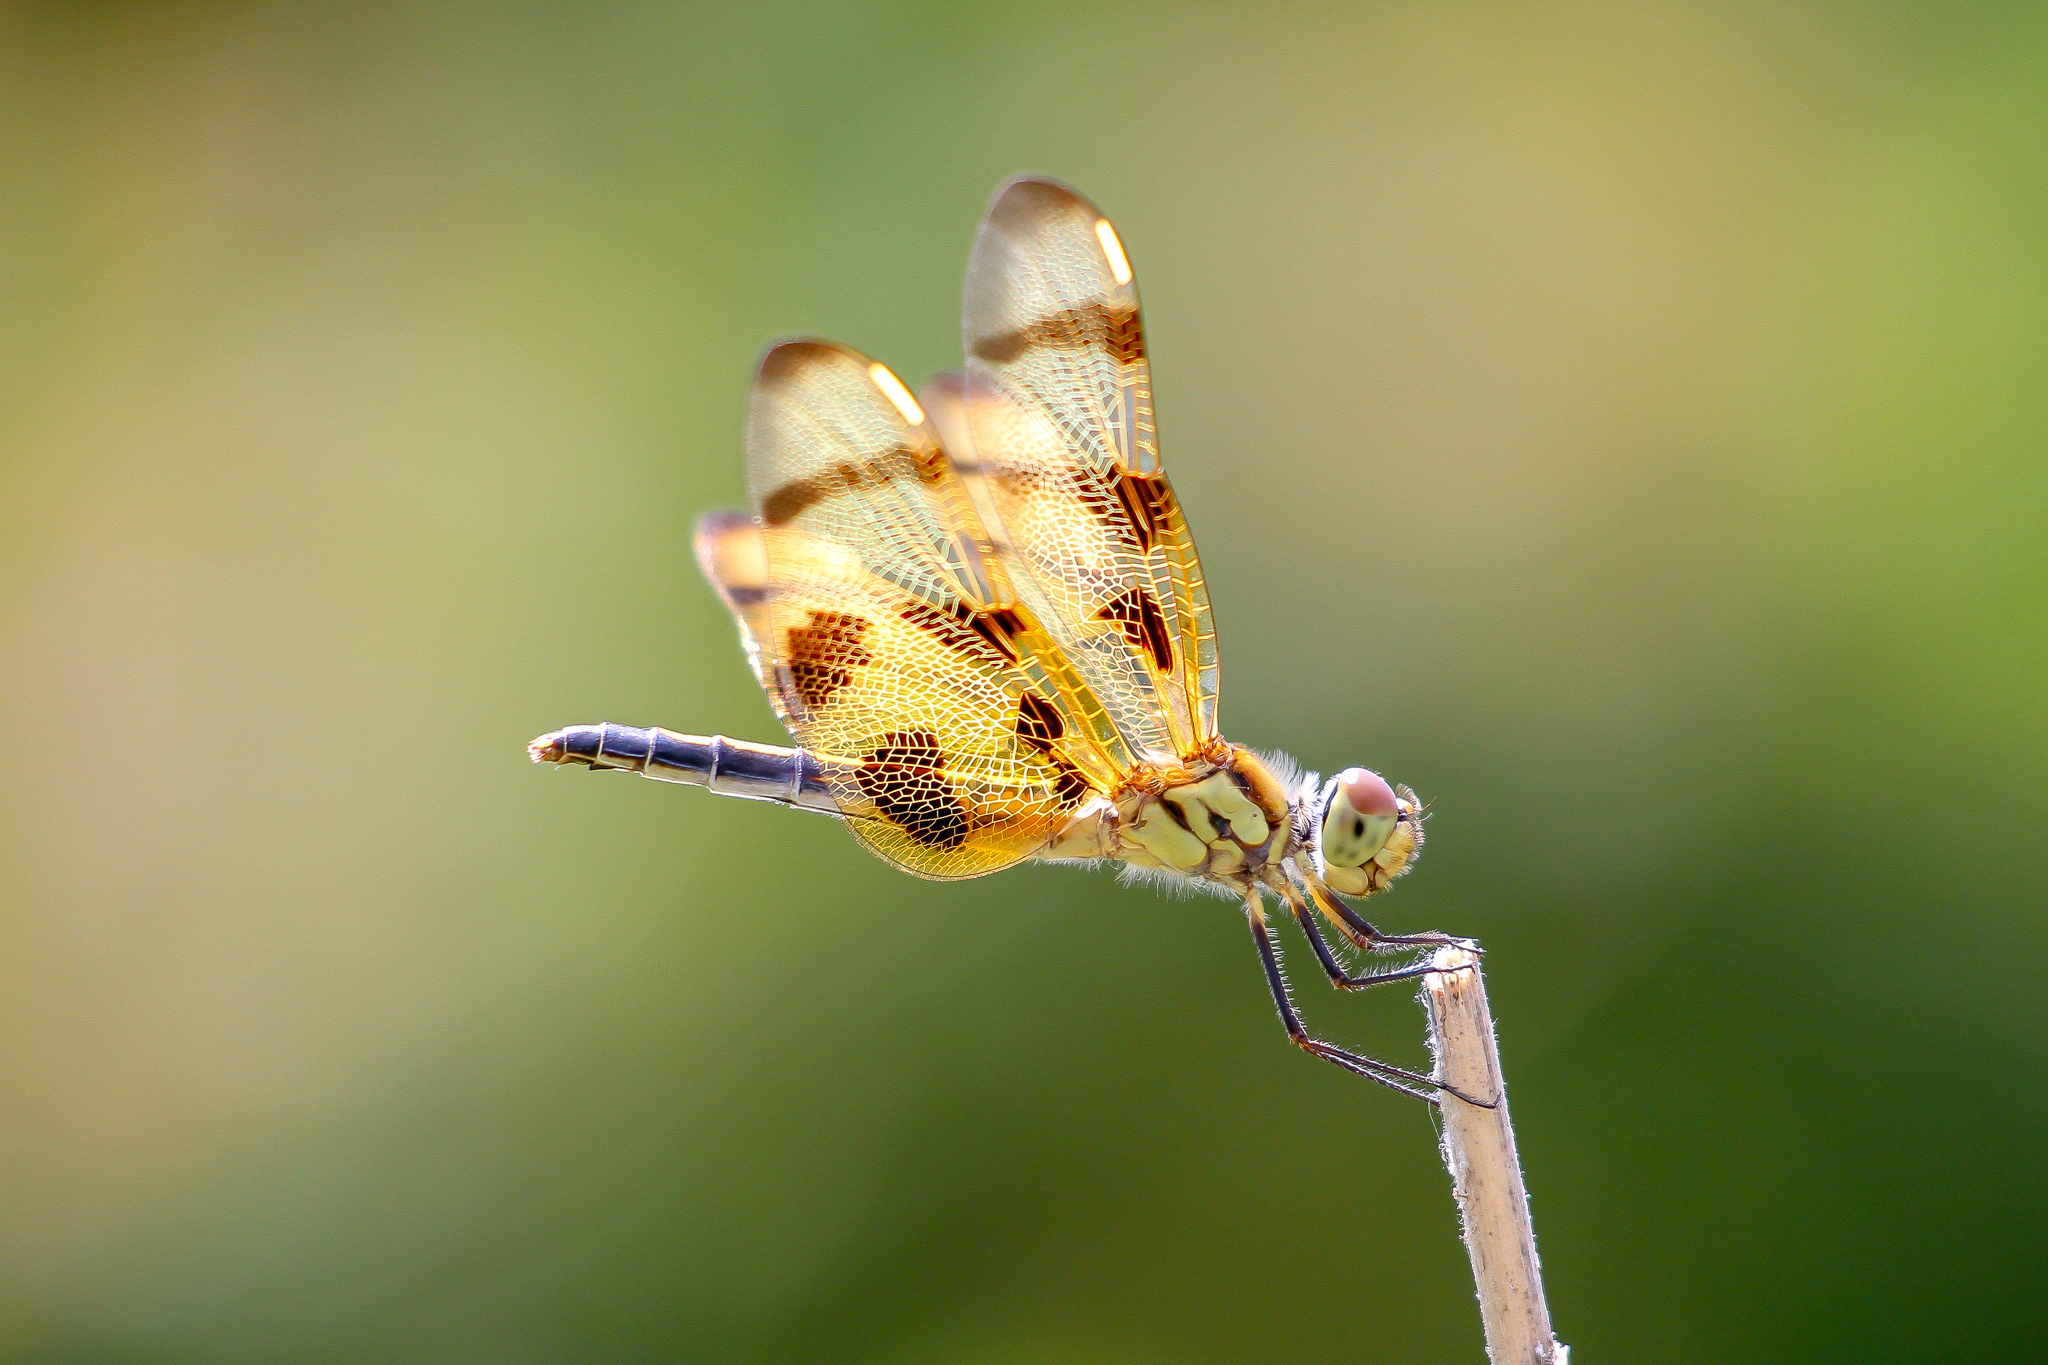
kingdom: Animalia
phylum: Arthropoda
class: Insecta
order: Odonata
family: Libellulidae
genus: Celithemis
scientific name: Celithemis eponina
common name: Halloween pennant
